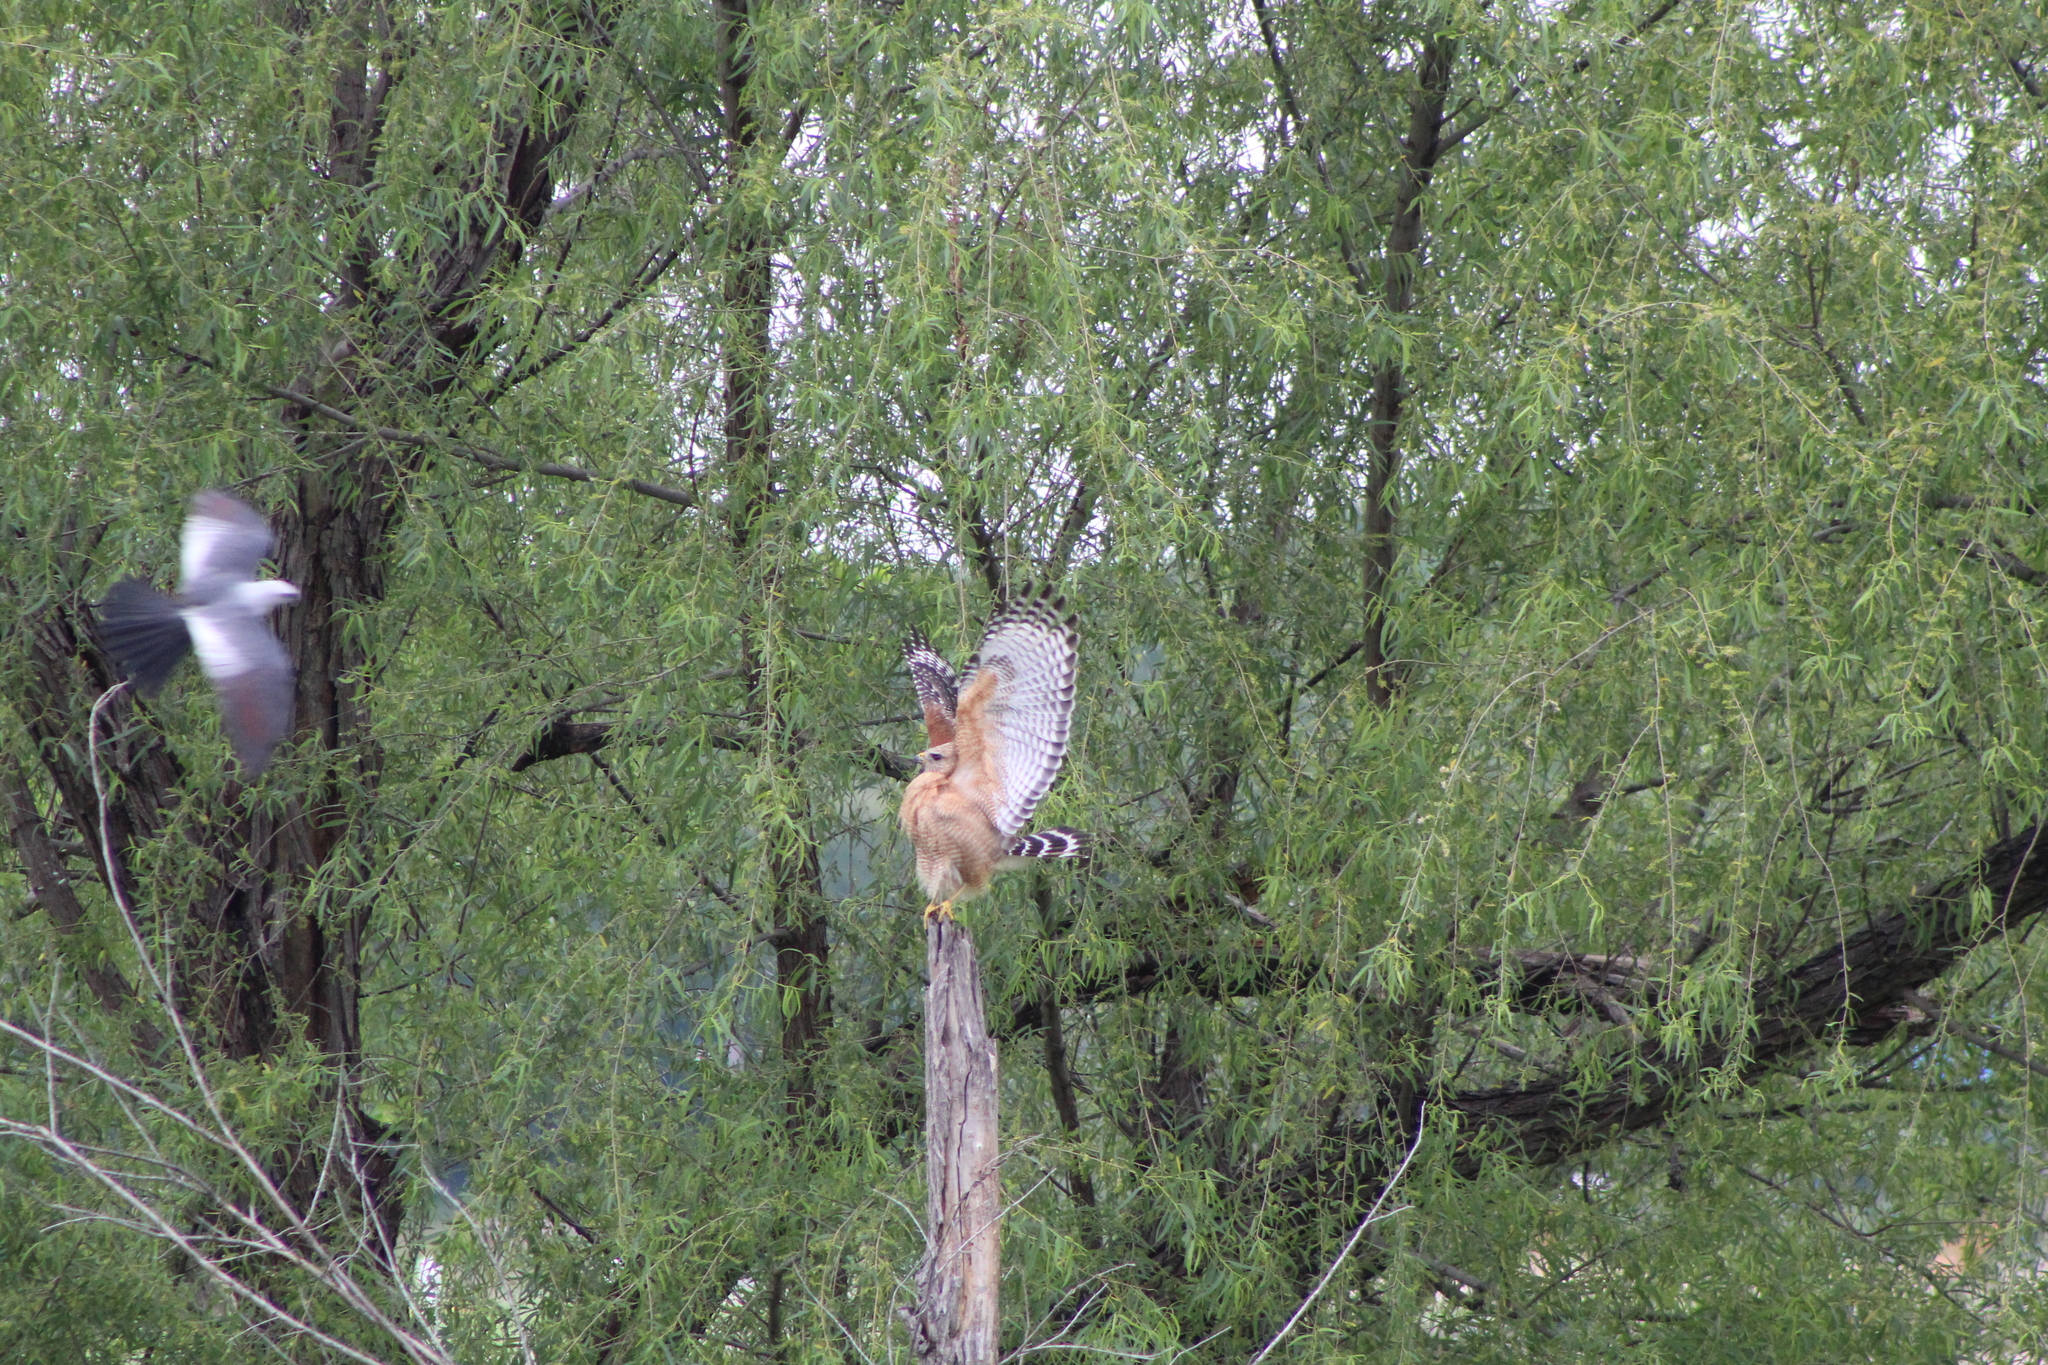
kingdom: Animalia
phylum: Chordata
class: Aves
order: Accipitriformes
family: Accipitridae
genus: Ictinia
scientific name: Ictinia mississippiensis
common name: Mississippi kite
